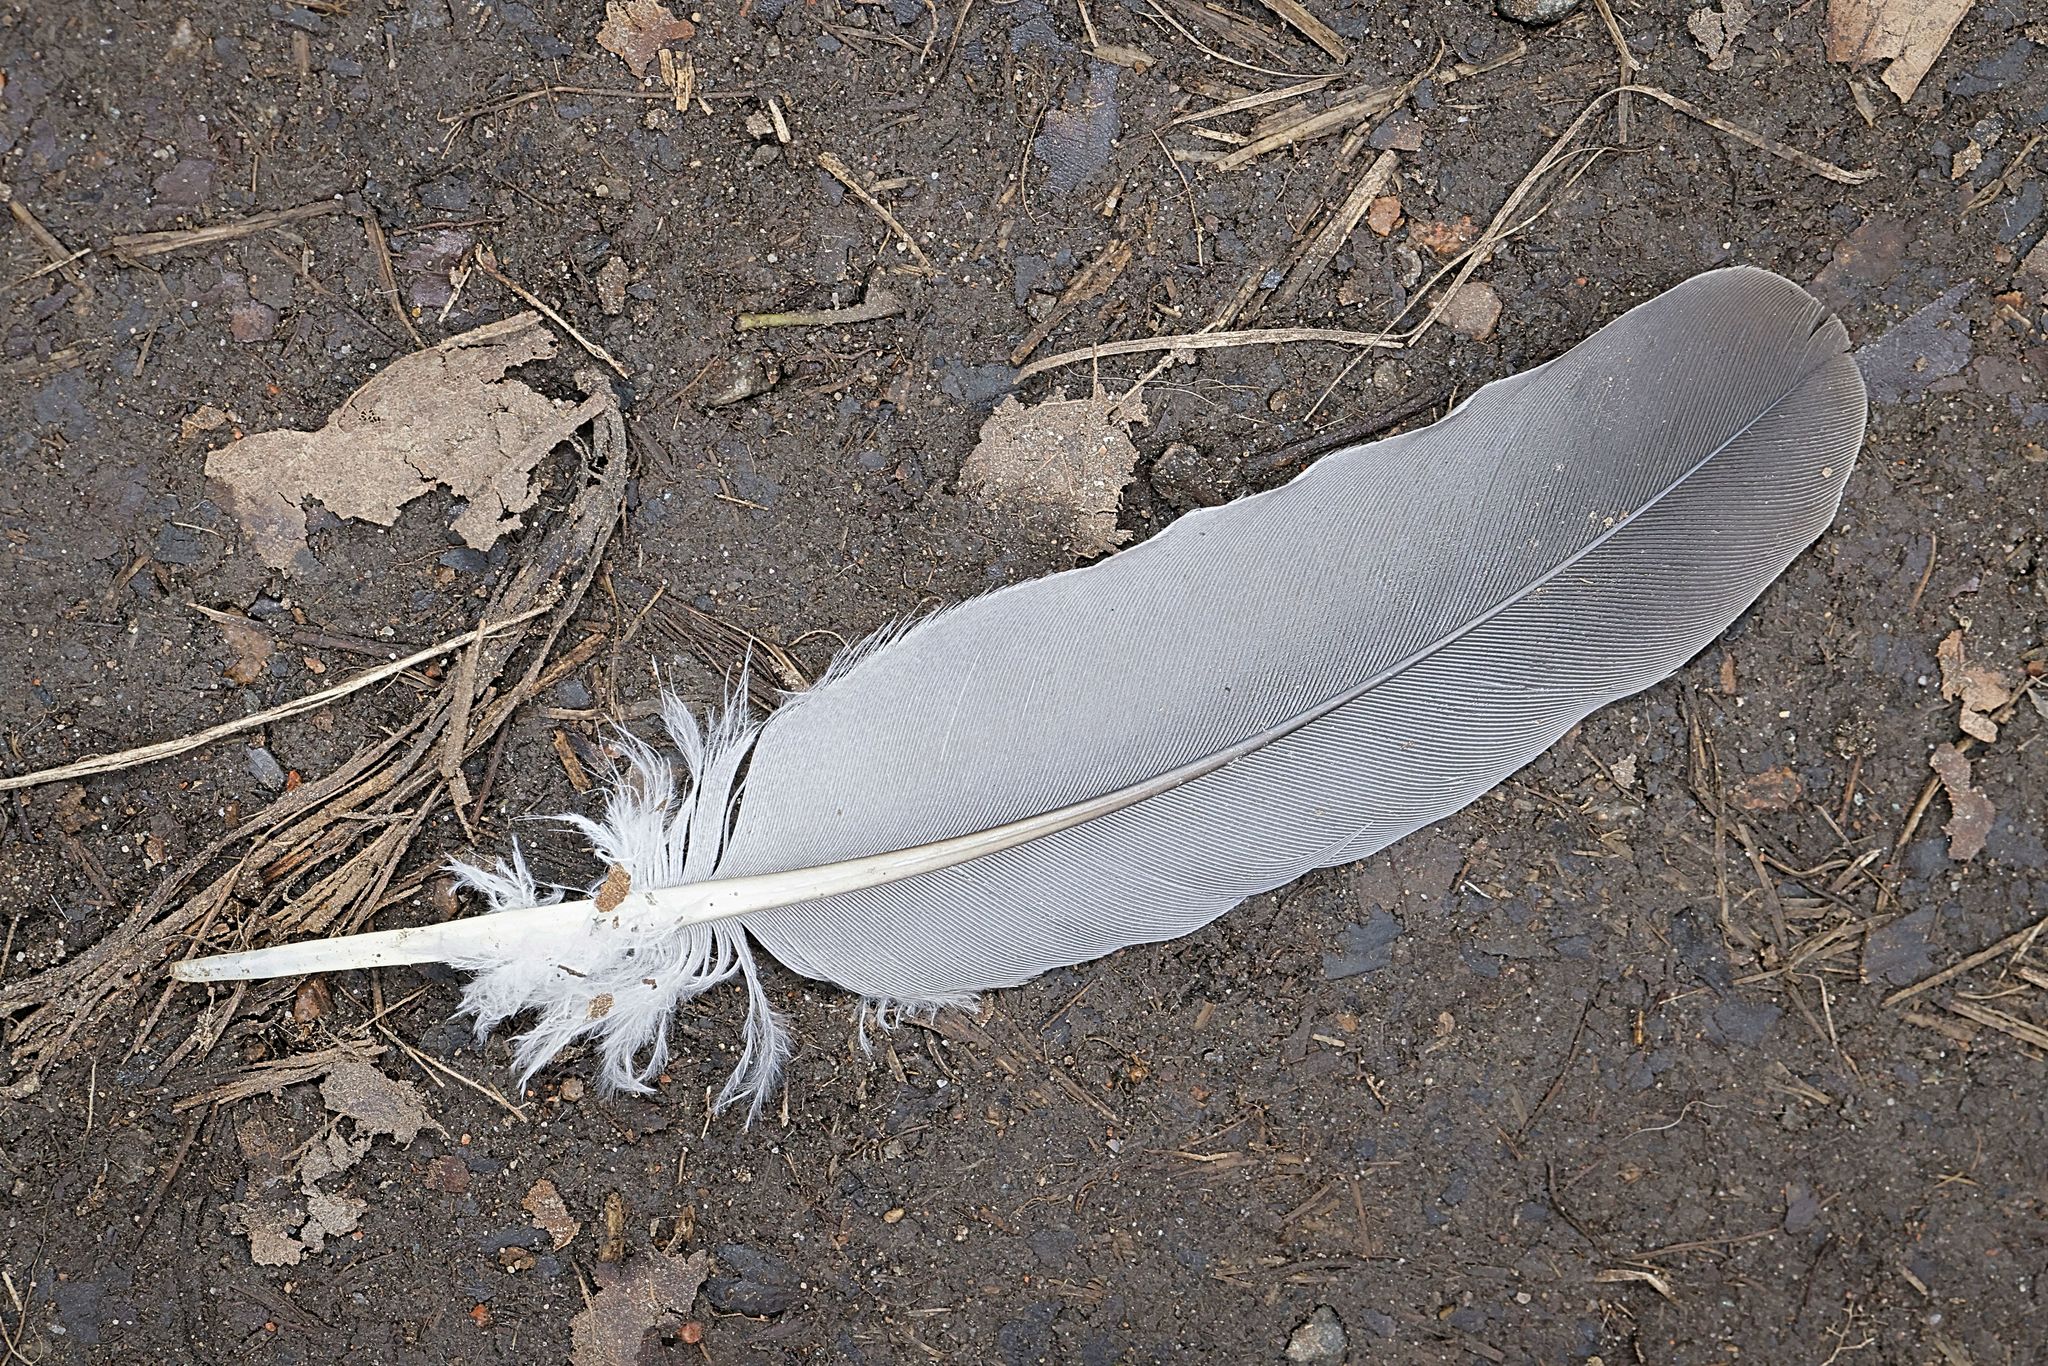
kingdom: Animalia
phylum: Chordata
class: Aves
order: Columbiformes
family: Columbidae
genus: Columba
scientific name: Columba palumbus
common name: Common wood pigeon
